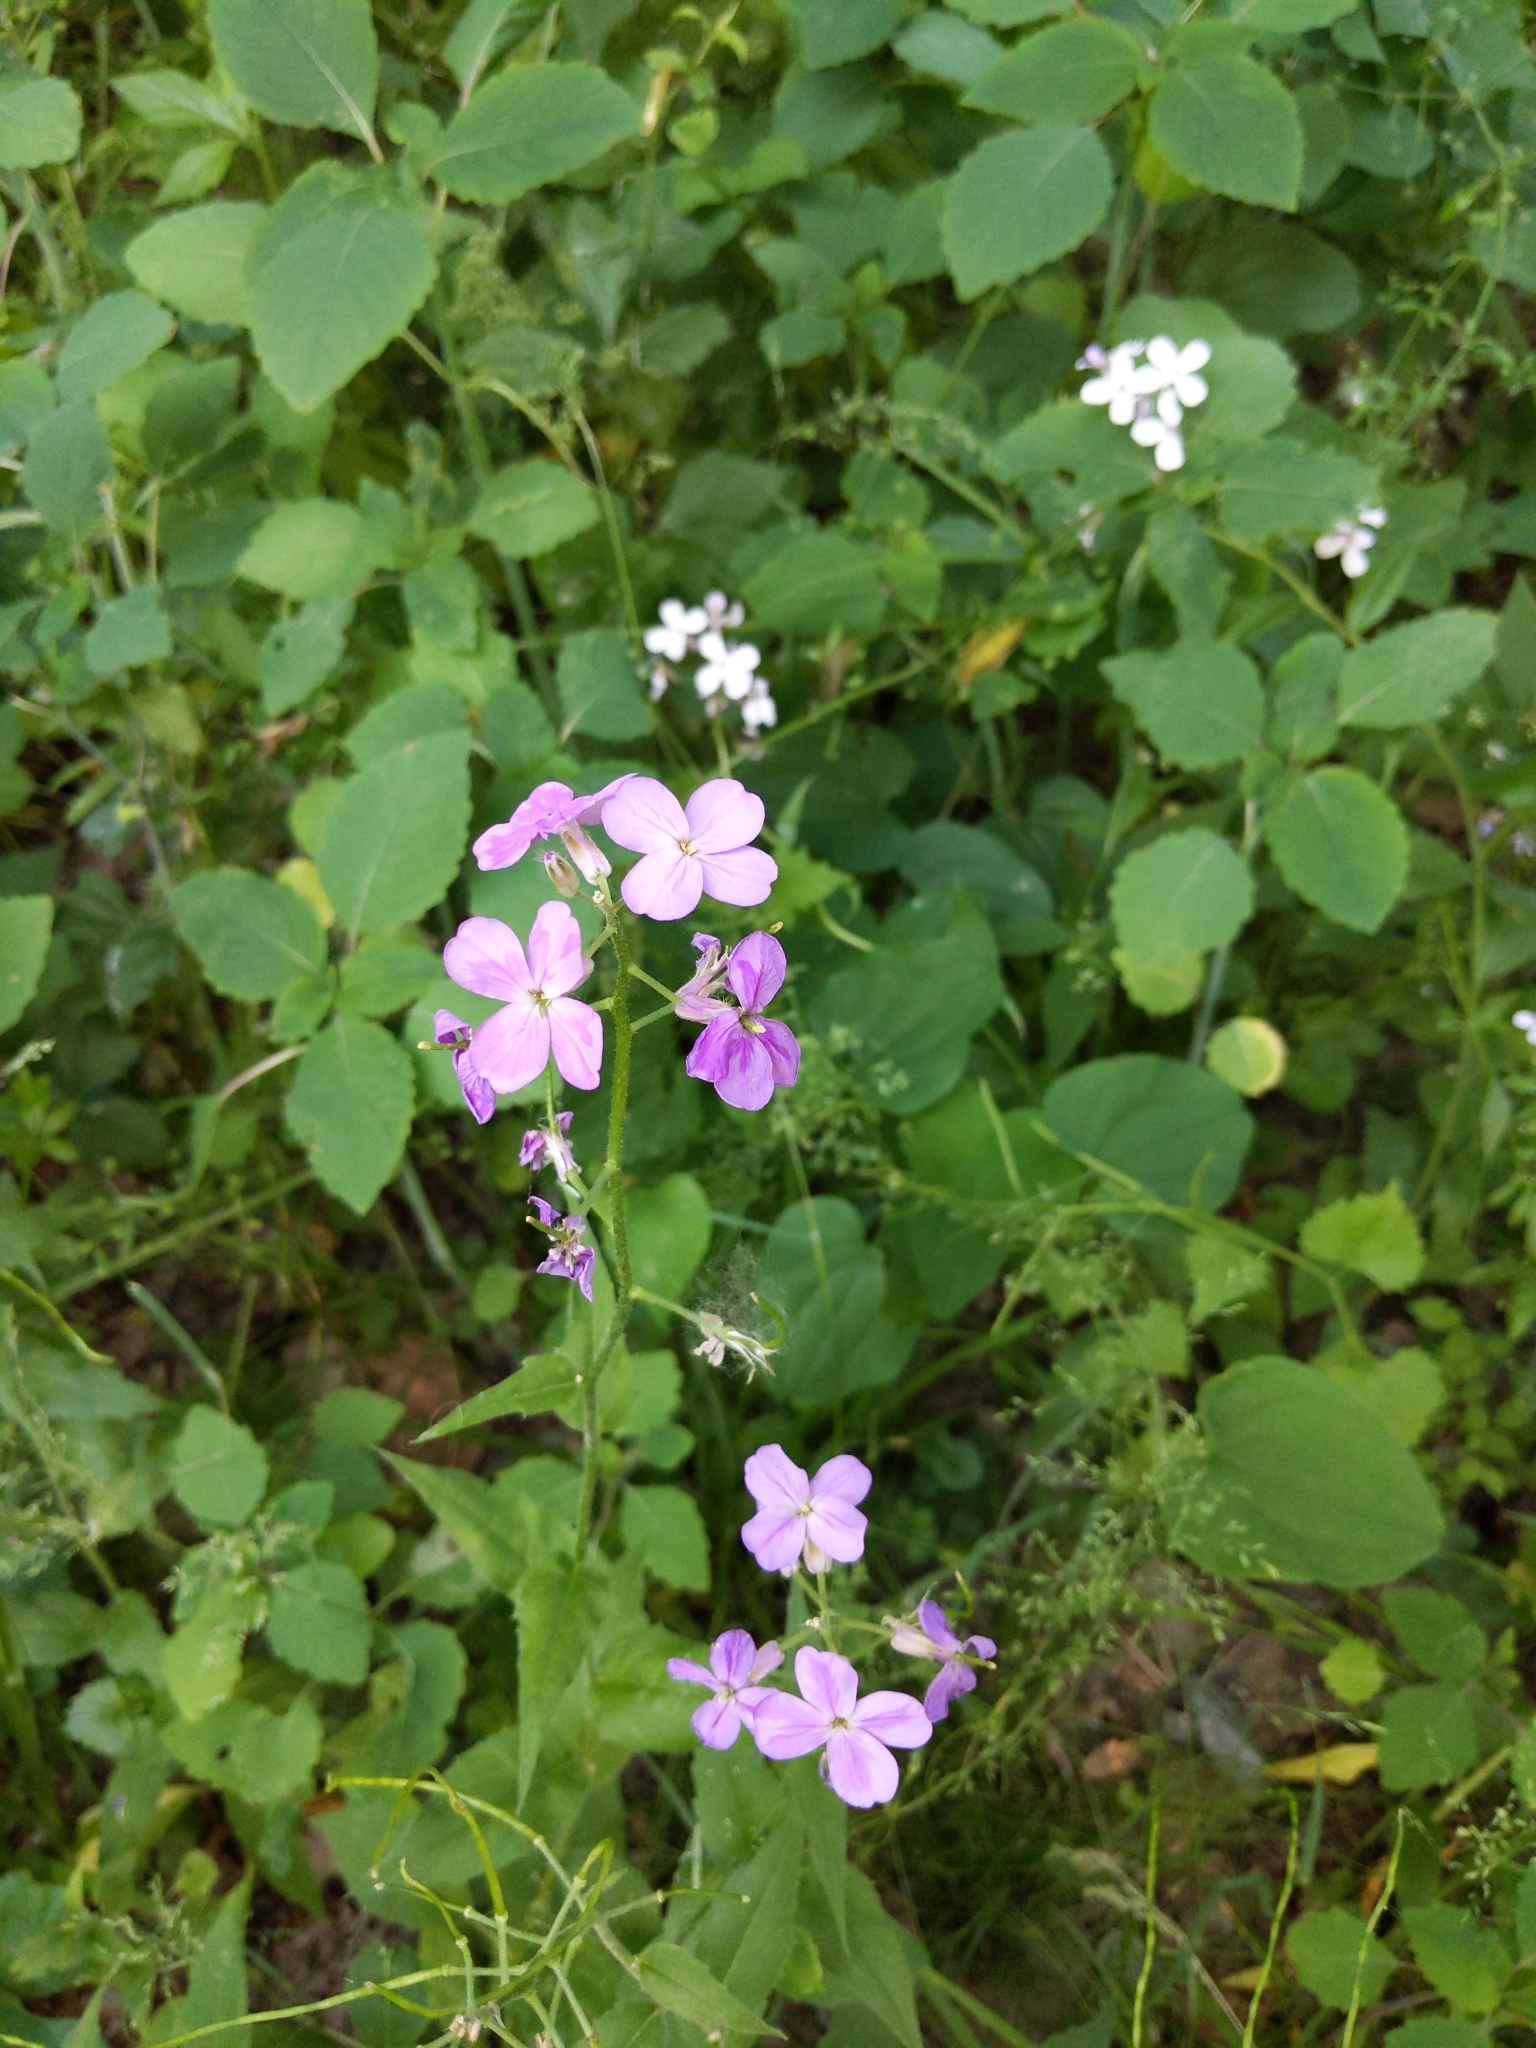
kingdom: Plantae
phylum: Tracheophyta
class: Magnoliopsida
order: Brassicales
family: Brassicaceae
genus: Hesperis
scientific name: Hesperis matronalis
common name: Dame's-violet
